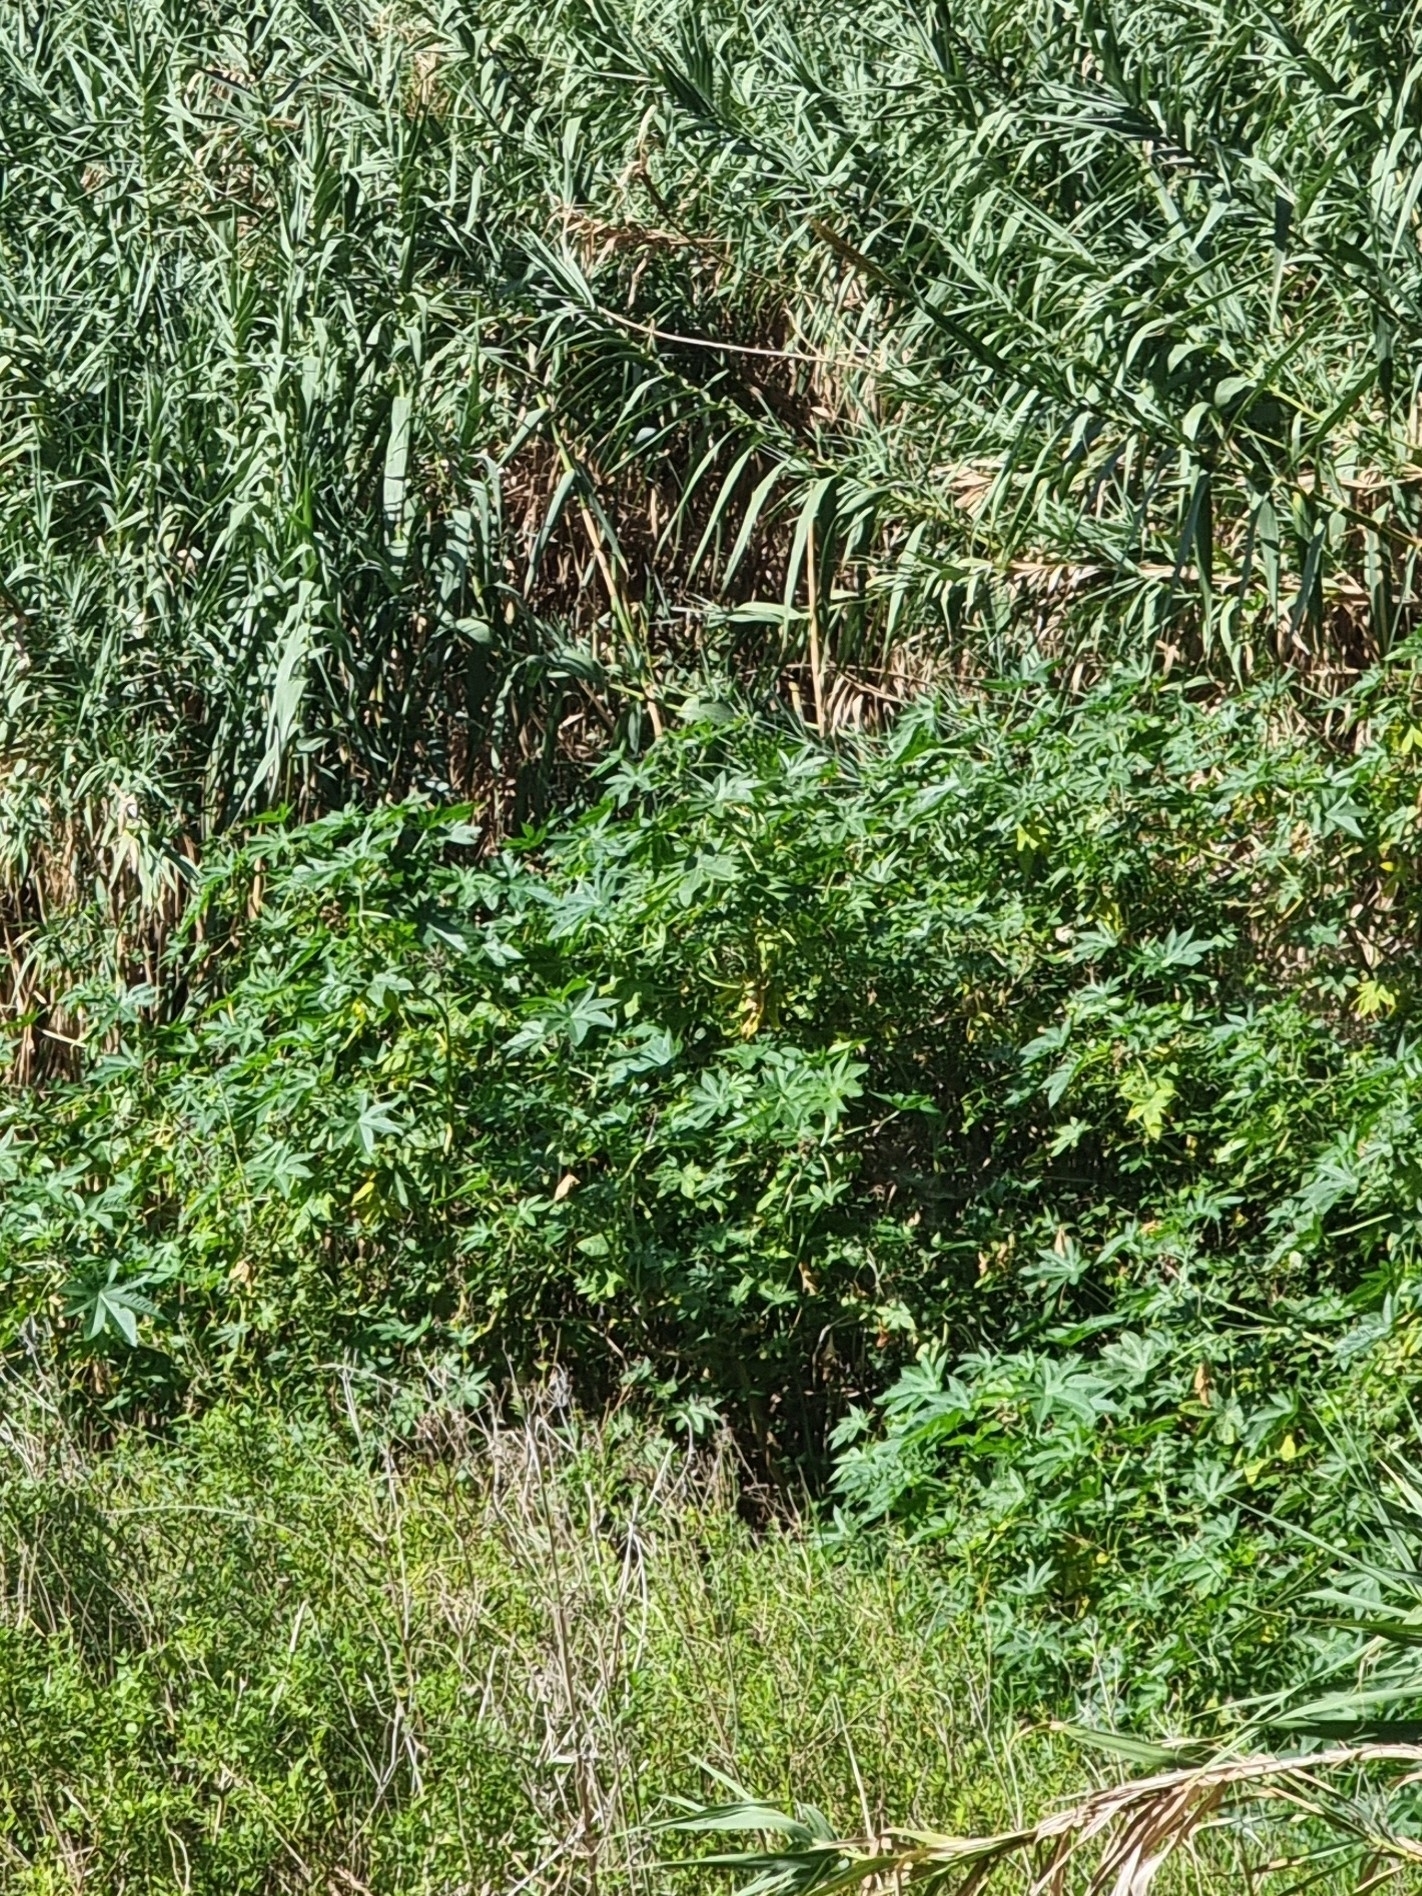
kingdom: Plantae
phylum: Tracheophyta
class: Magnoliopsida
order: Malpighiales
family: Euphorbiaceae
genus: Ricinus
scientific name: Ricinus communis
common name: Castor-oil-plant
